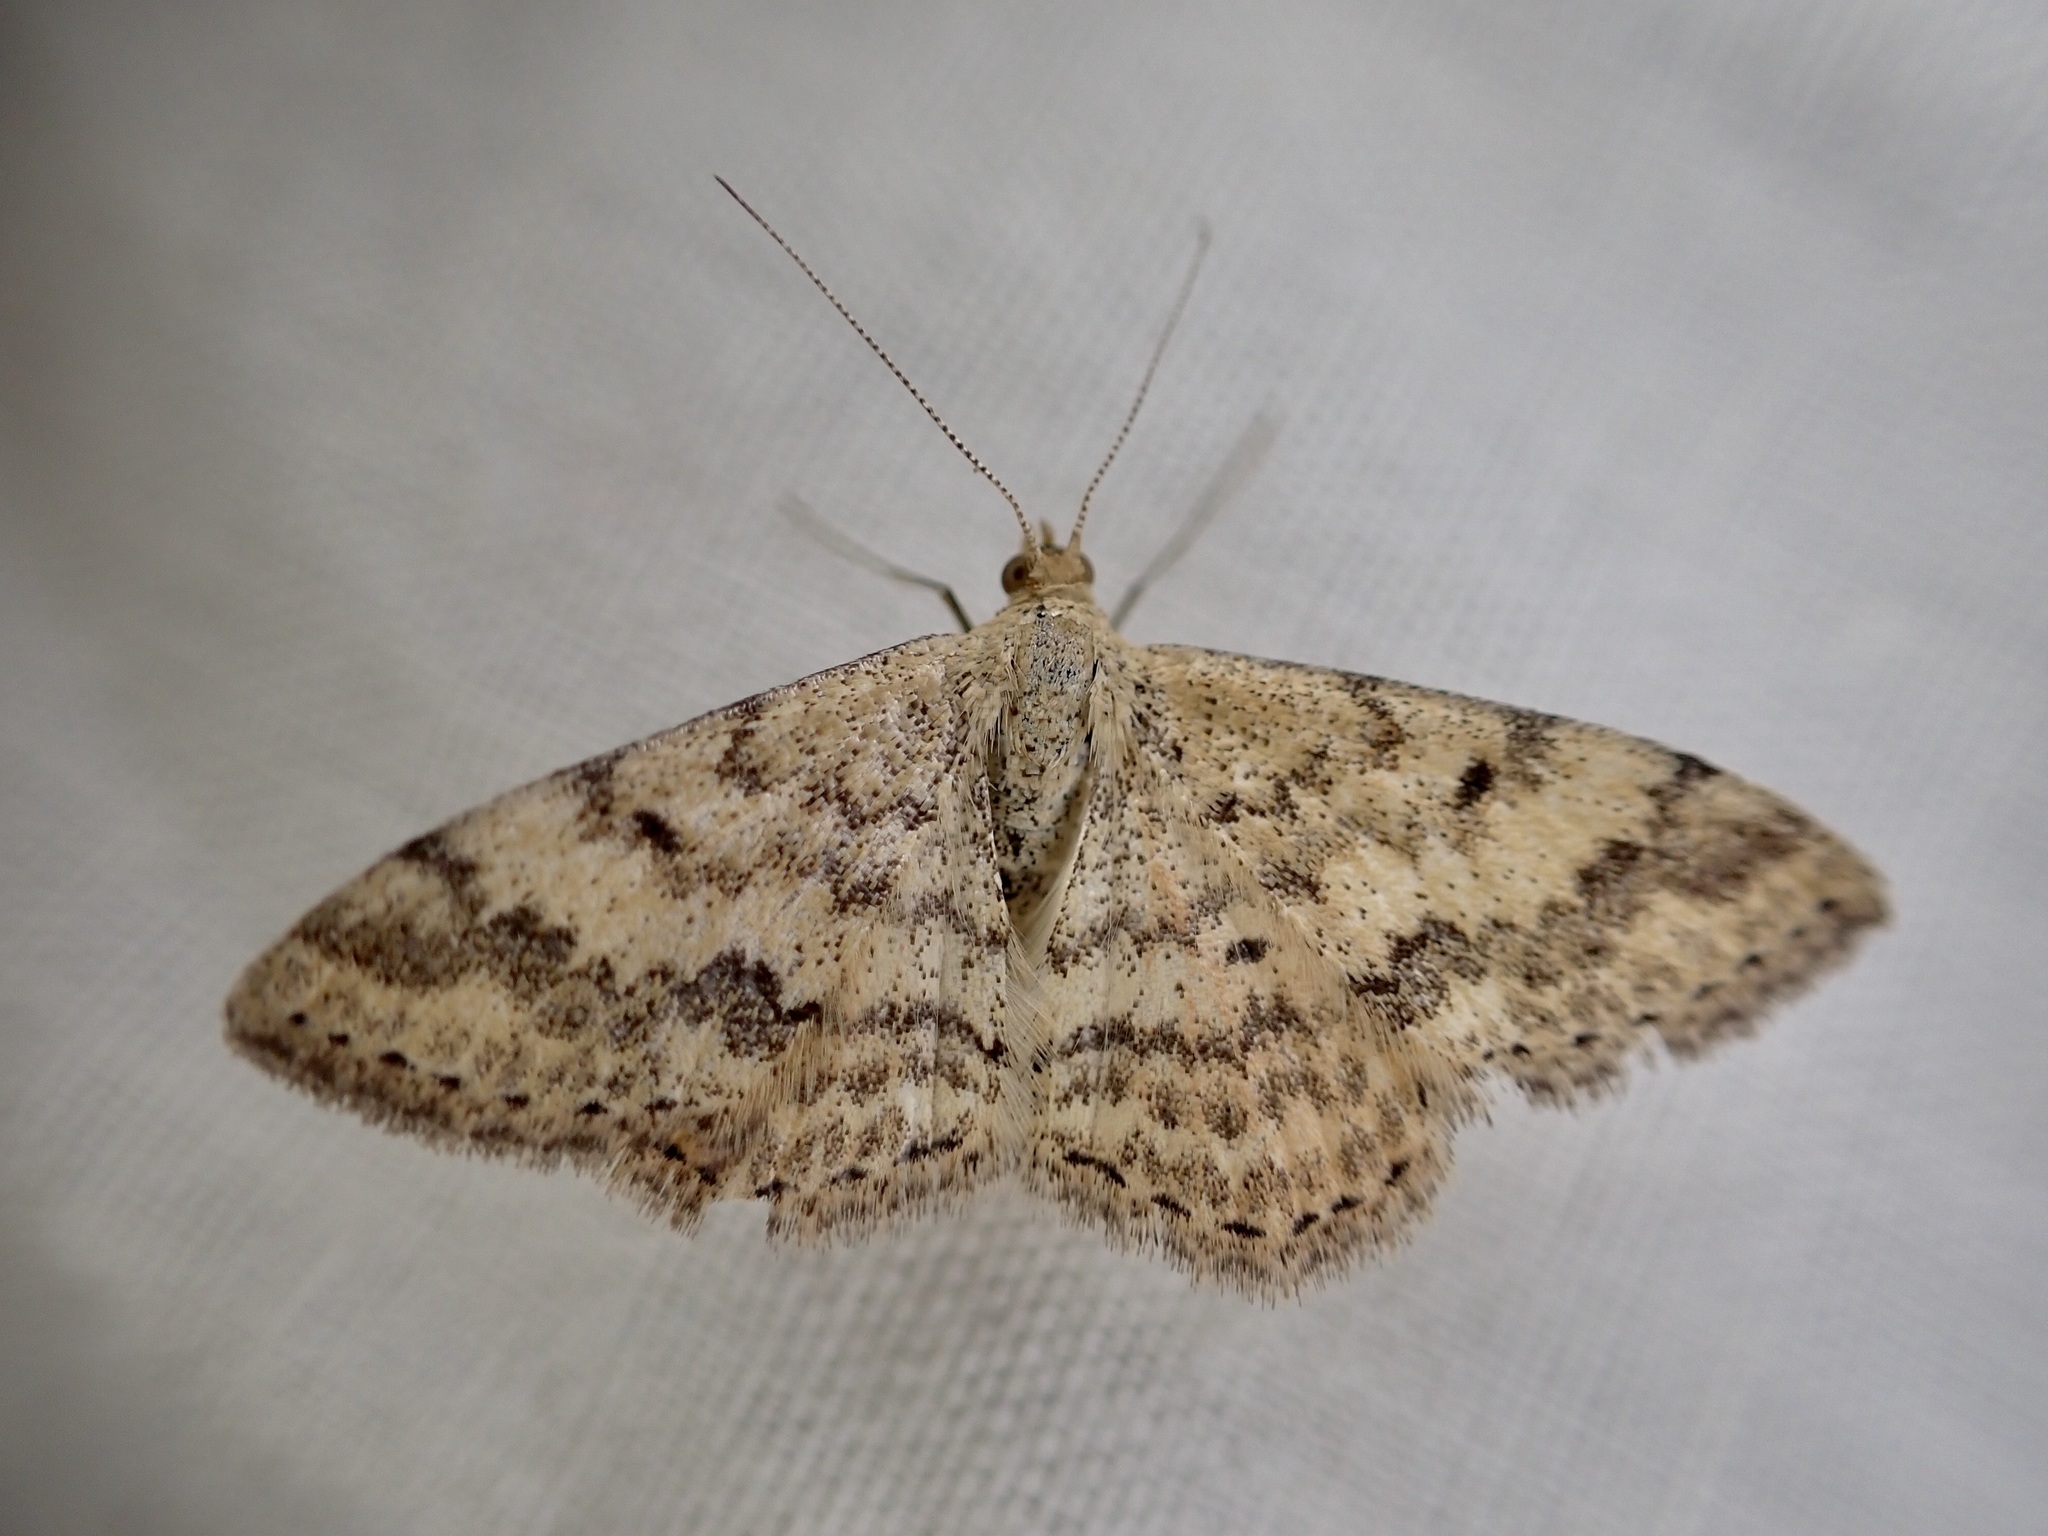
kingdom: Animalia
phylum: Arthropoda
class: Insecta
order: Lepidoptera
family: Geometridae
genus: Scopula
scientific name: Scopula rubraria
